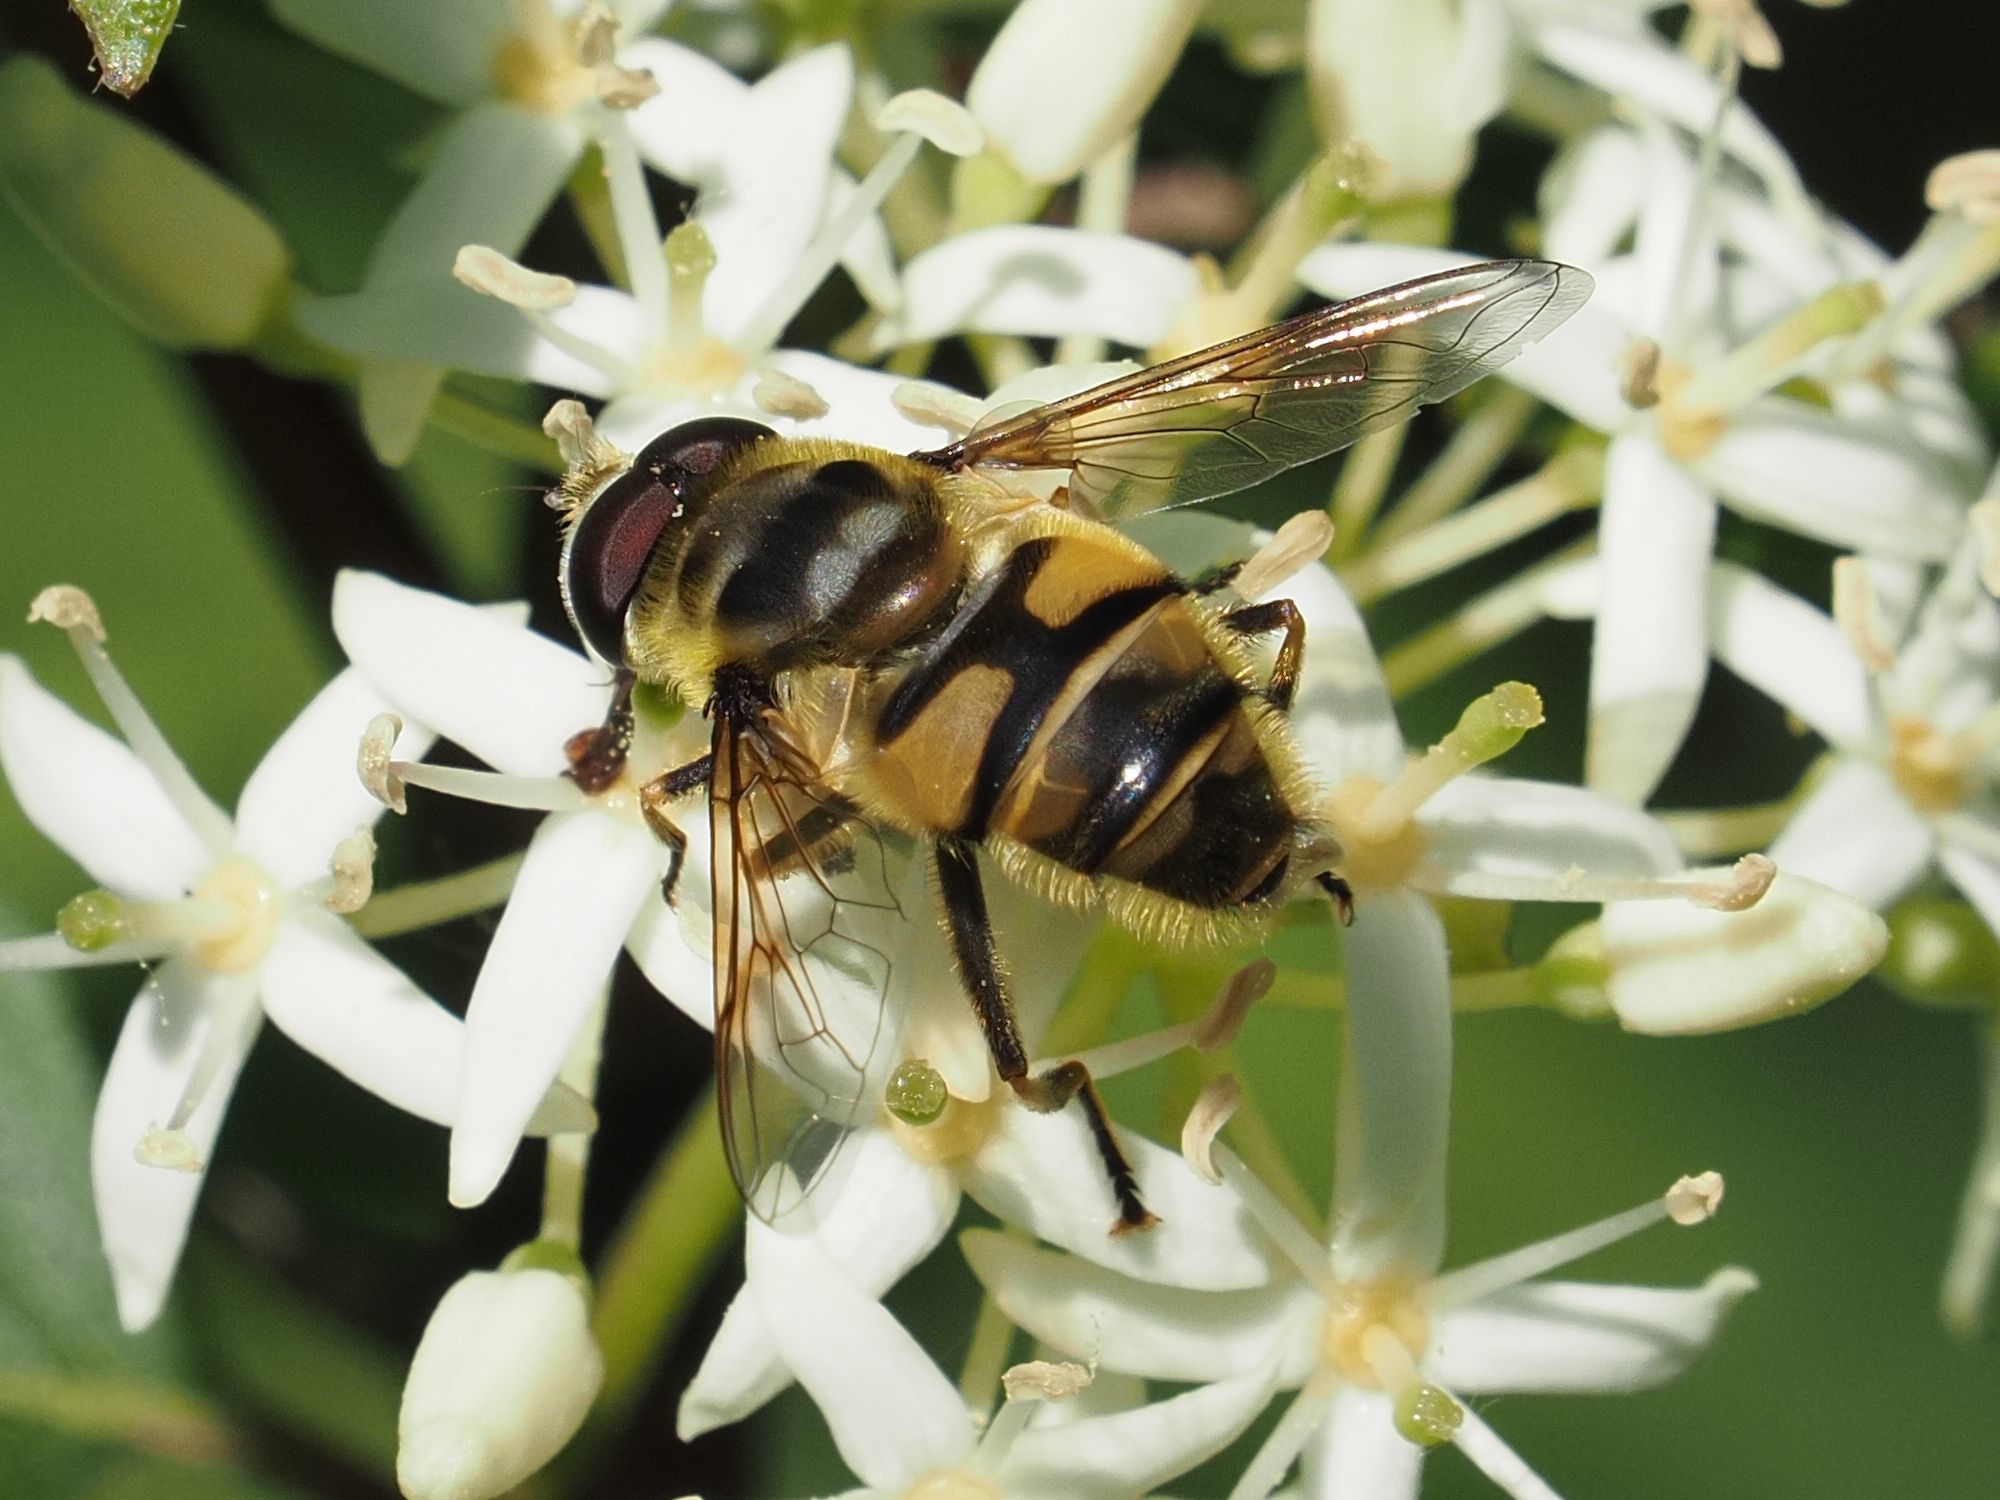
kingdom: Animalia
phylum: Arthropoda
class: Insecta
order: Diptera
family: Syrphidae
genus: Myathropa
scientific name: Myathropa florea
